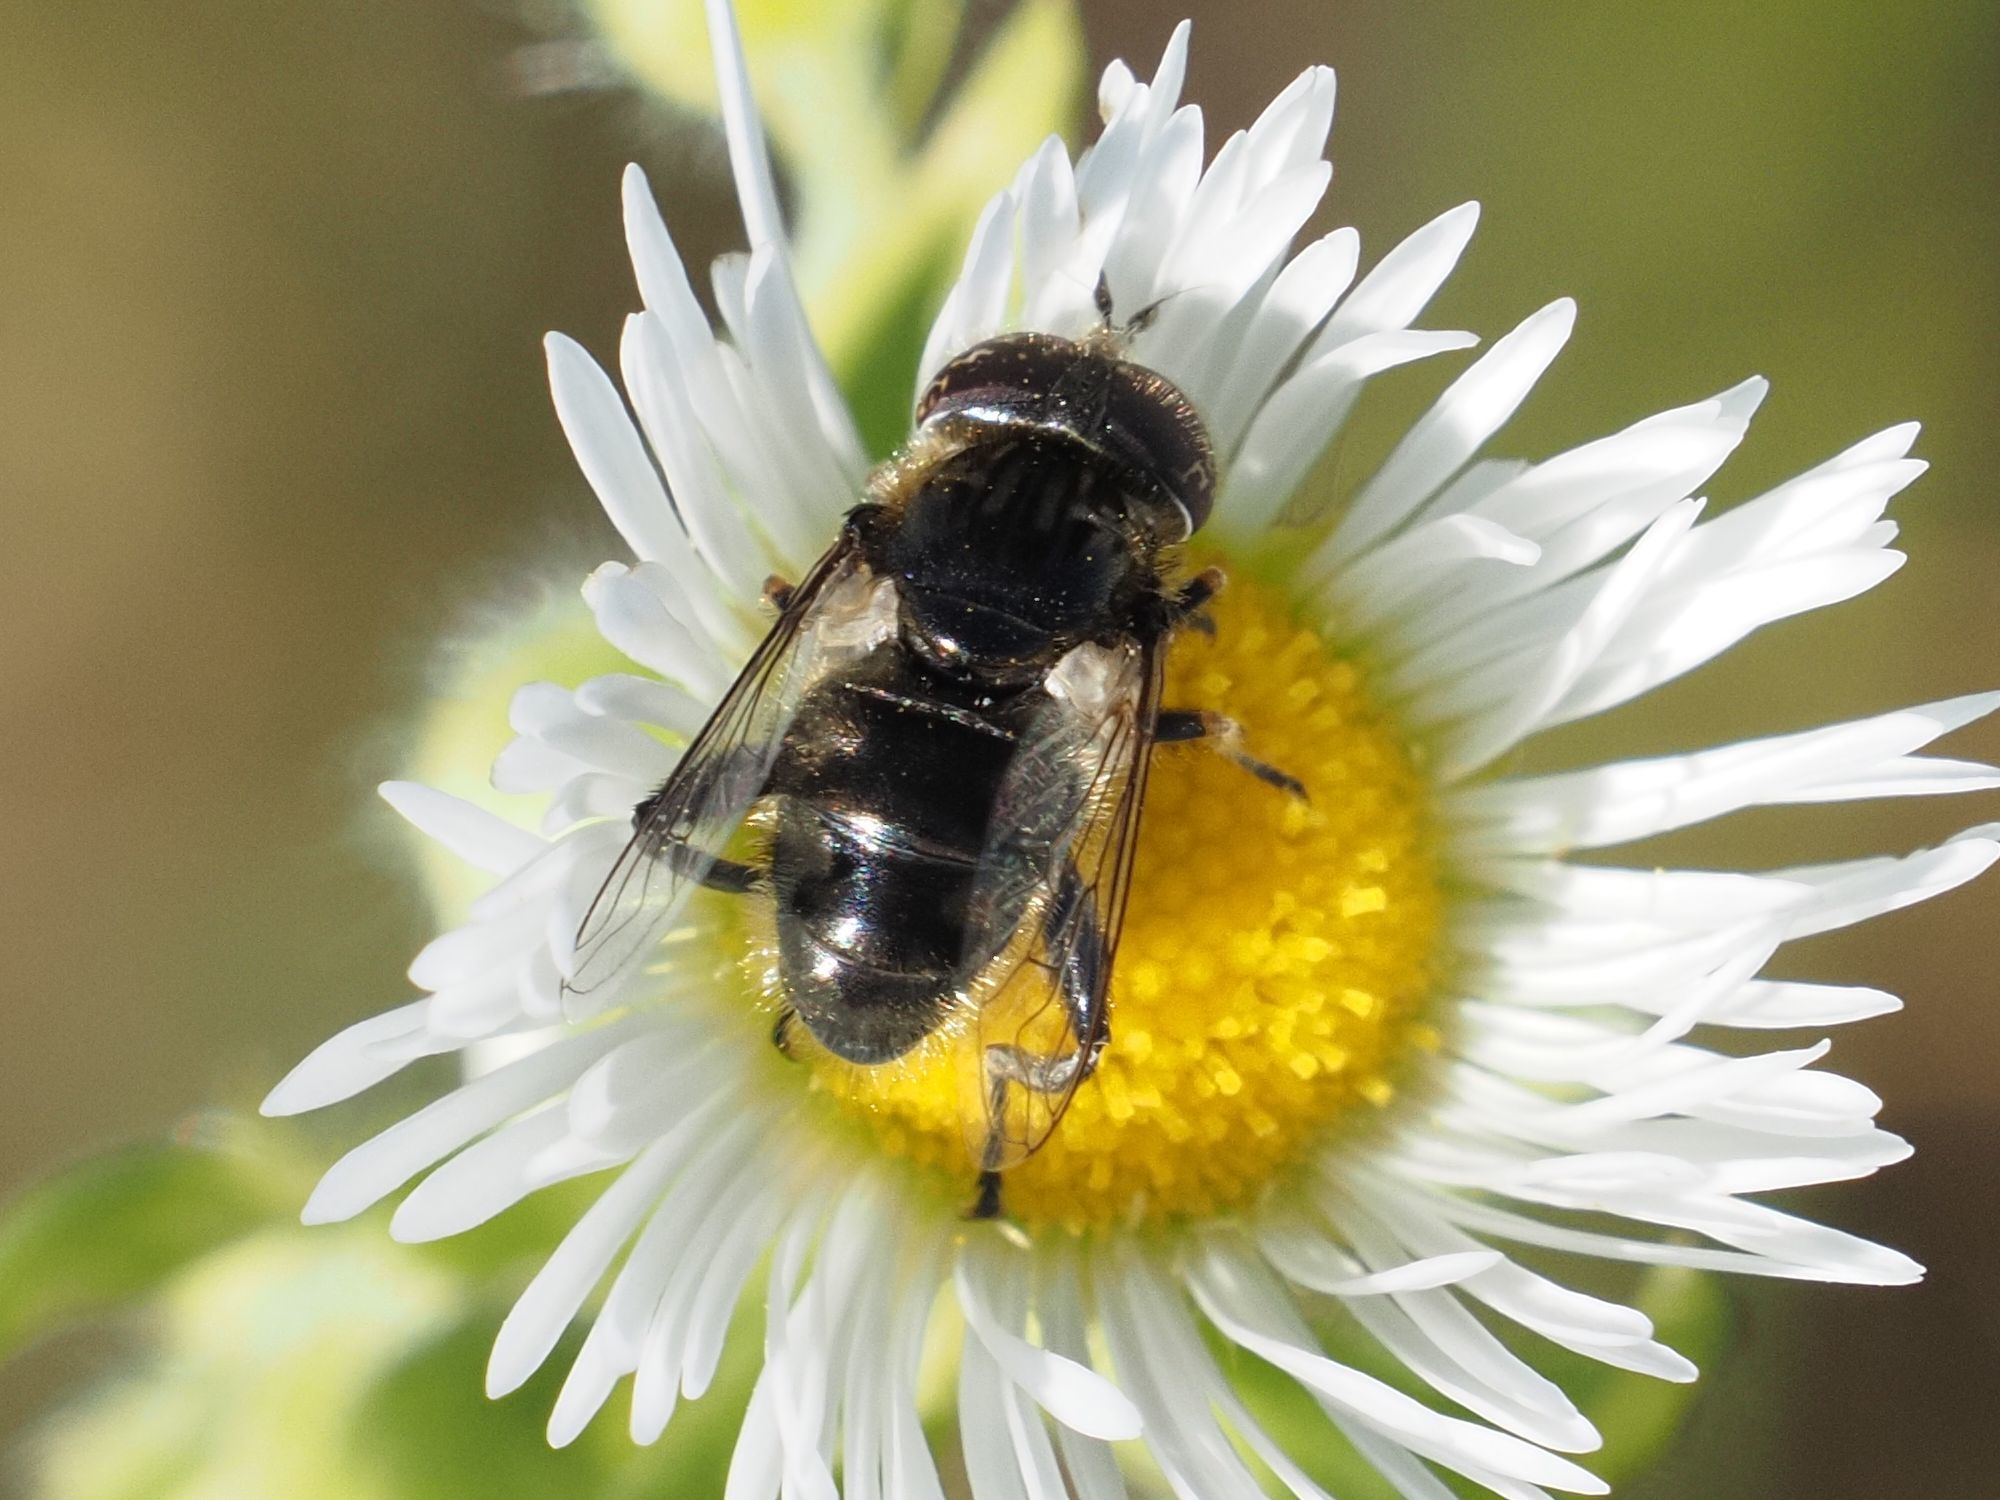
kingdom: Animalia
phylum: Arthropoda
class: Insecta
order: Diptera
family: Syrphidae
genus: Eristalinus
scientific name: Eristalinus sepulchralis
